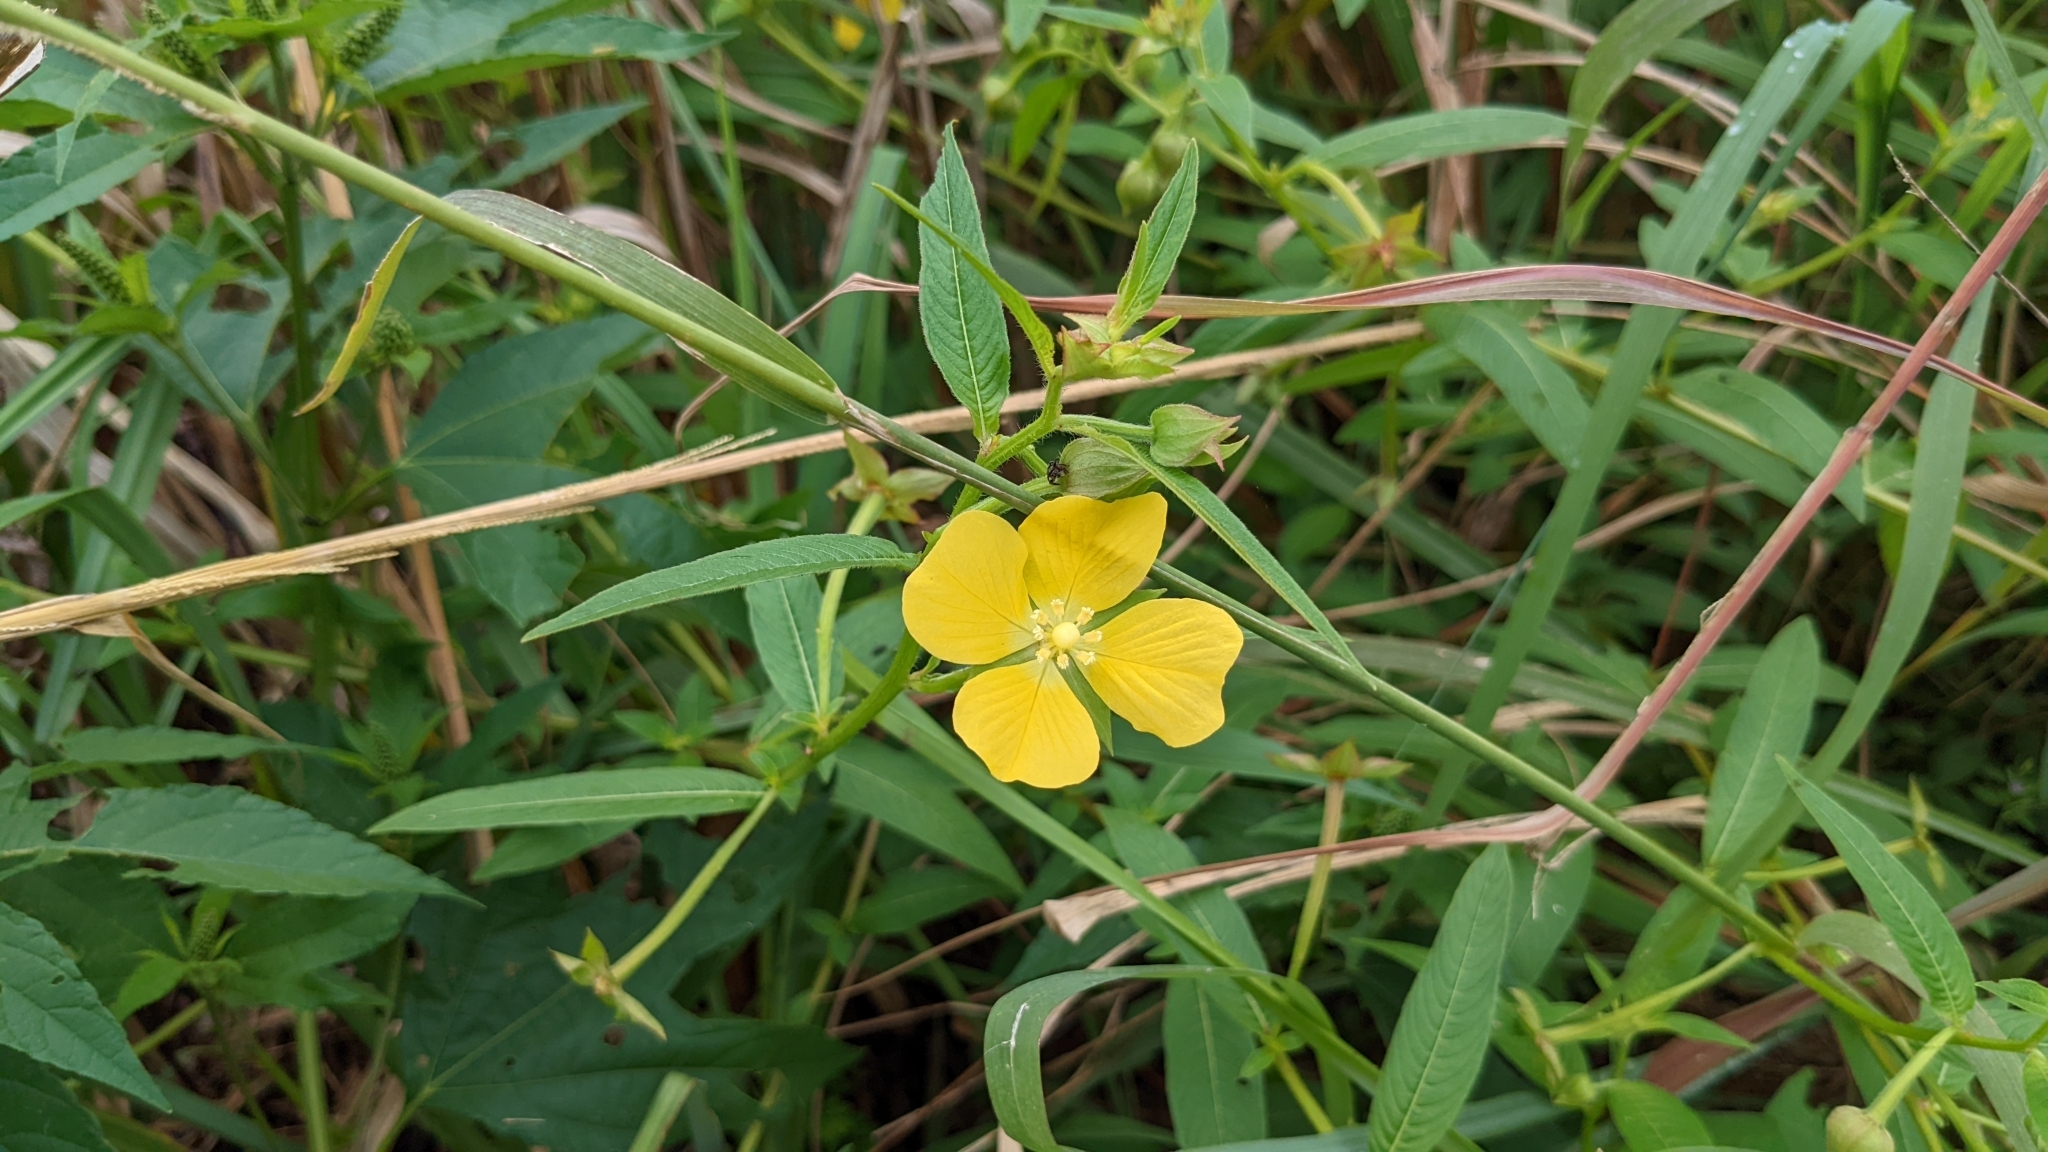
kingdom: Plantae
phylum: Tracheophyta
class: Magnoliopsida
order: Myrtales
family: Onagraceae
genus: Ludwigia
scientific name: Ludwigia octovalvis
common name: Water-primrose
